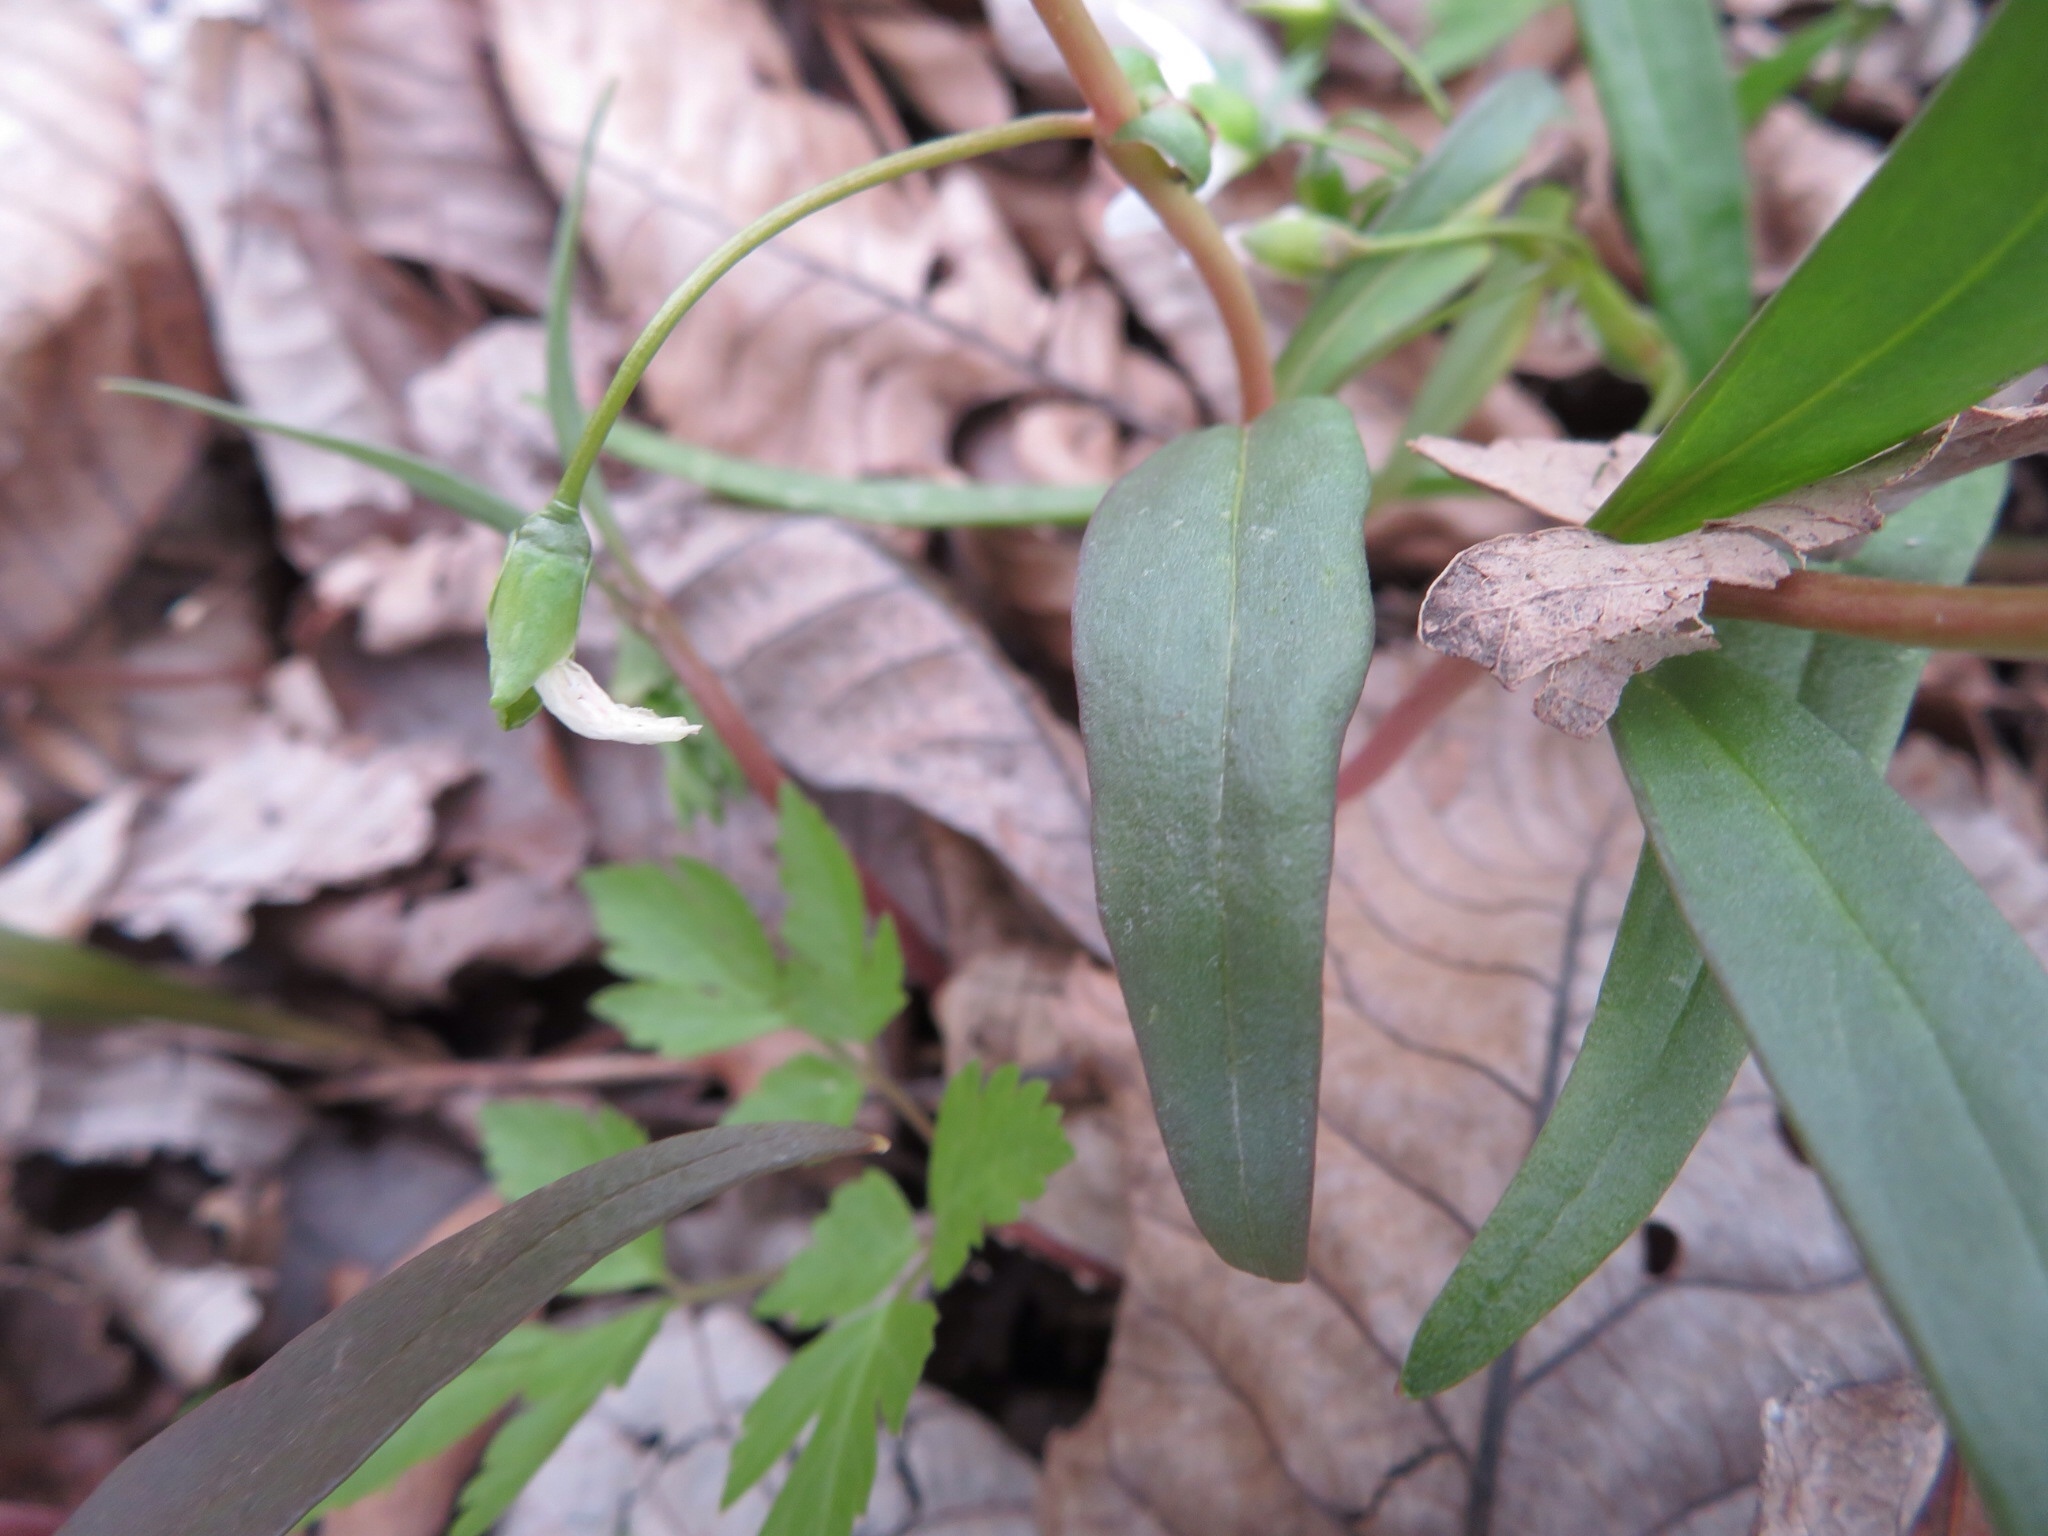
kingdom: Plantae
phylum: Tracheophyta
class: Magnoliopsida
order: Caryophyllales
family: Montiaceae
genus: Claytonia
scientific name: Claytonia virginica
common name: Virginia springbeauty
